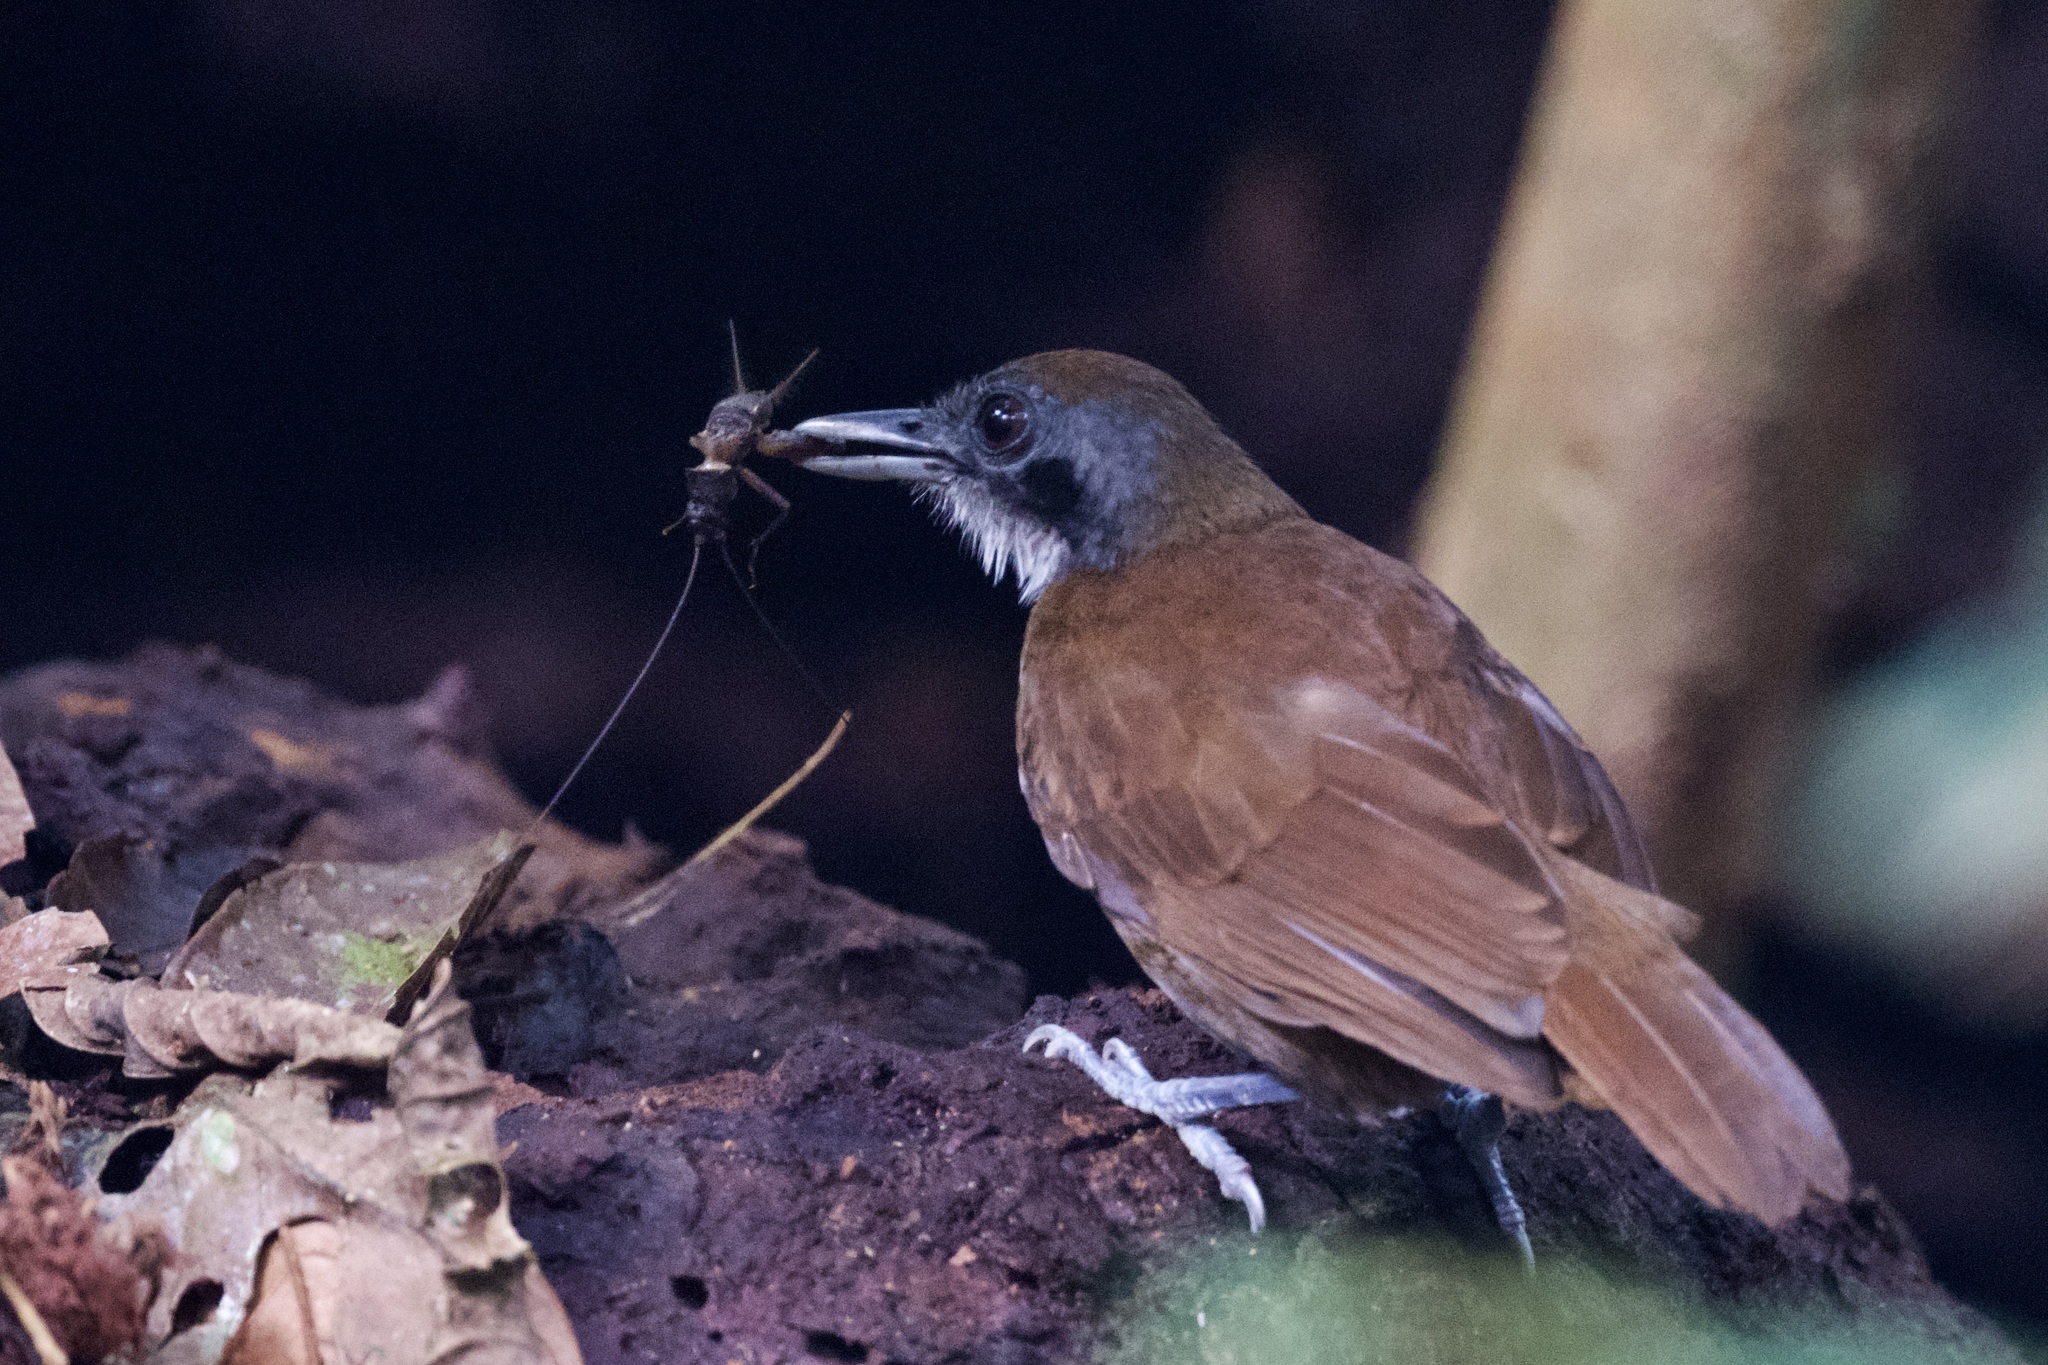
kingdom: Animalia
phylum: Chordata
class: Aves
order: Passeriformes
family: Thamnophilidae
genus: Gymnopithys
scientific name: Gymnopithys leucaspis
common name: White-cheeked antbird
